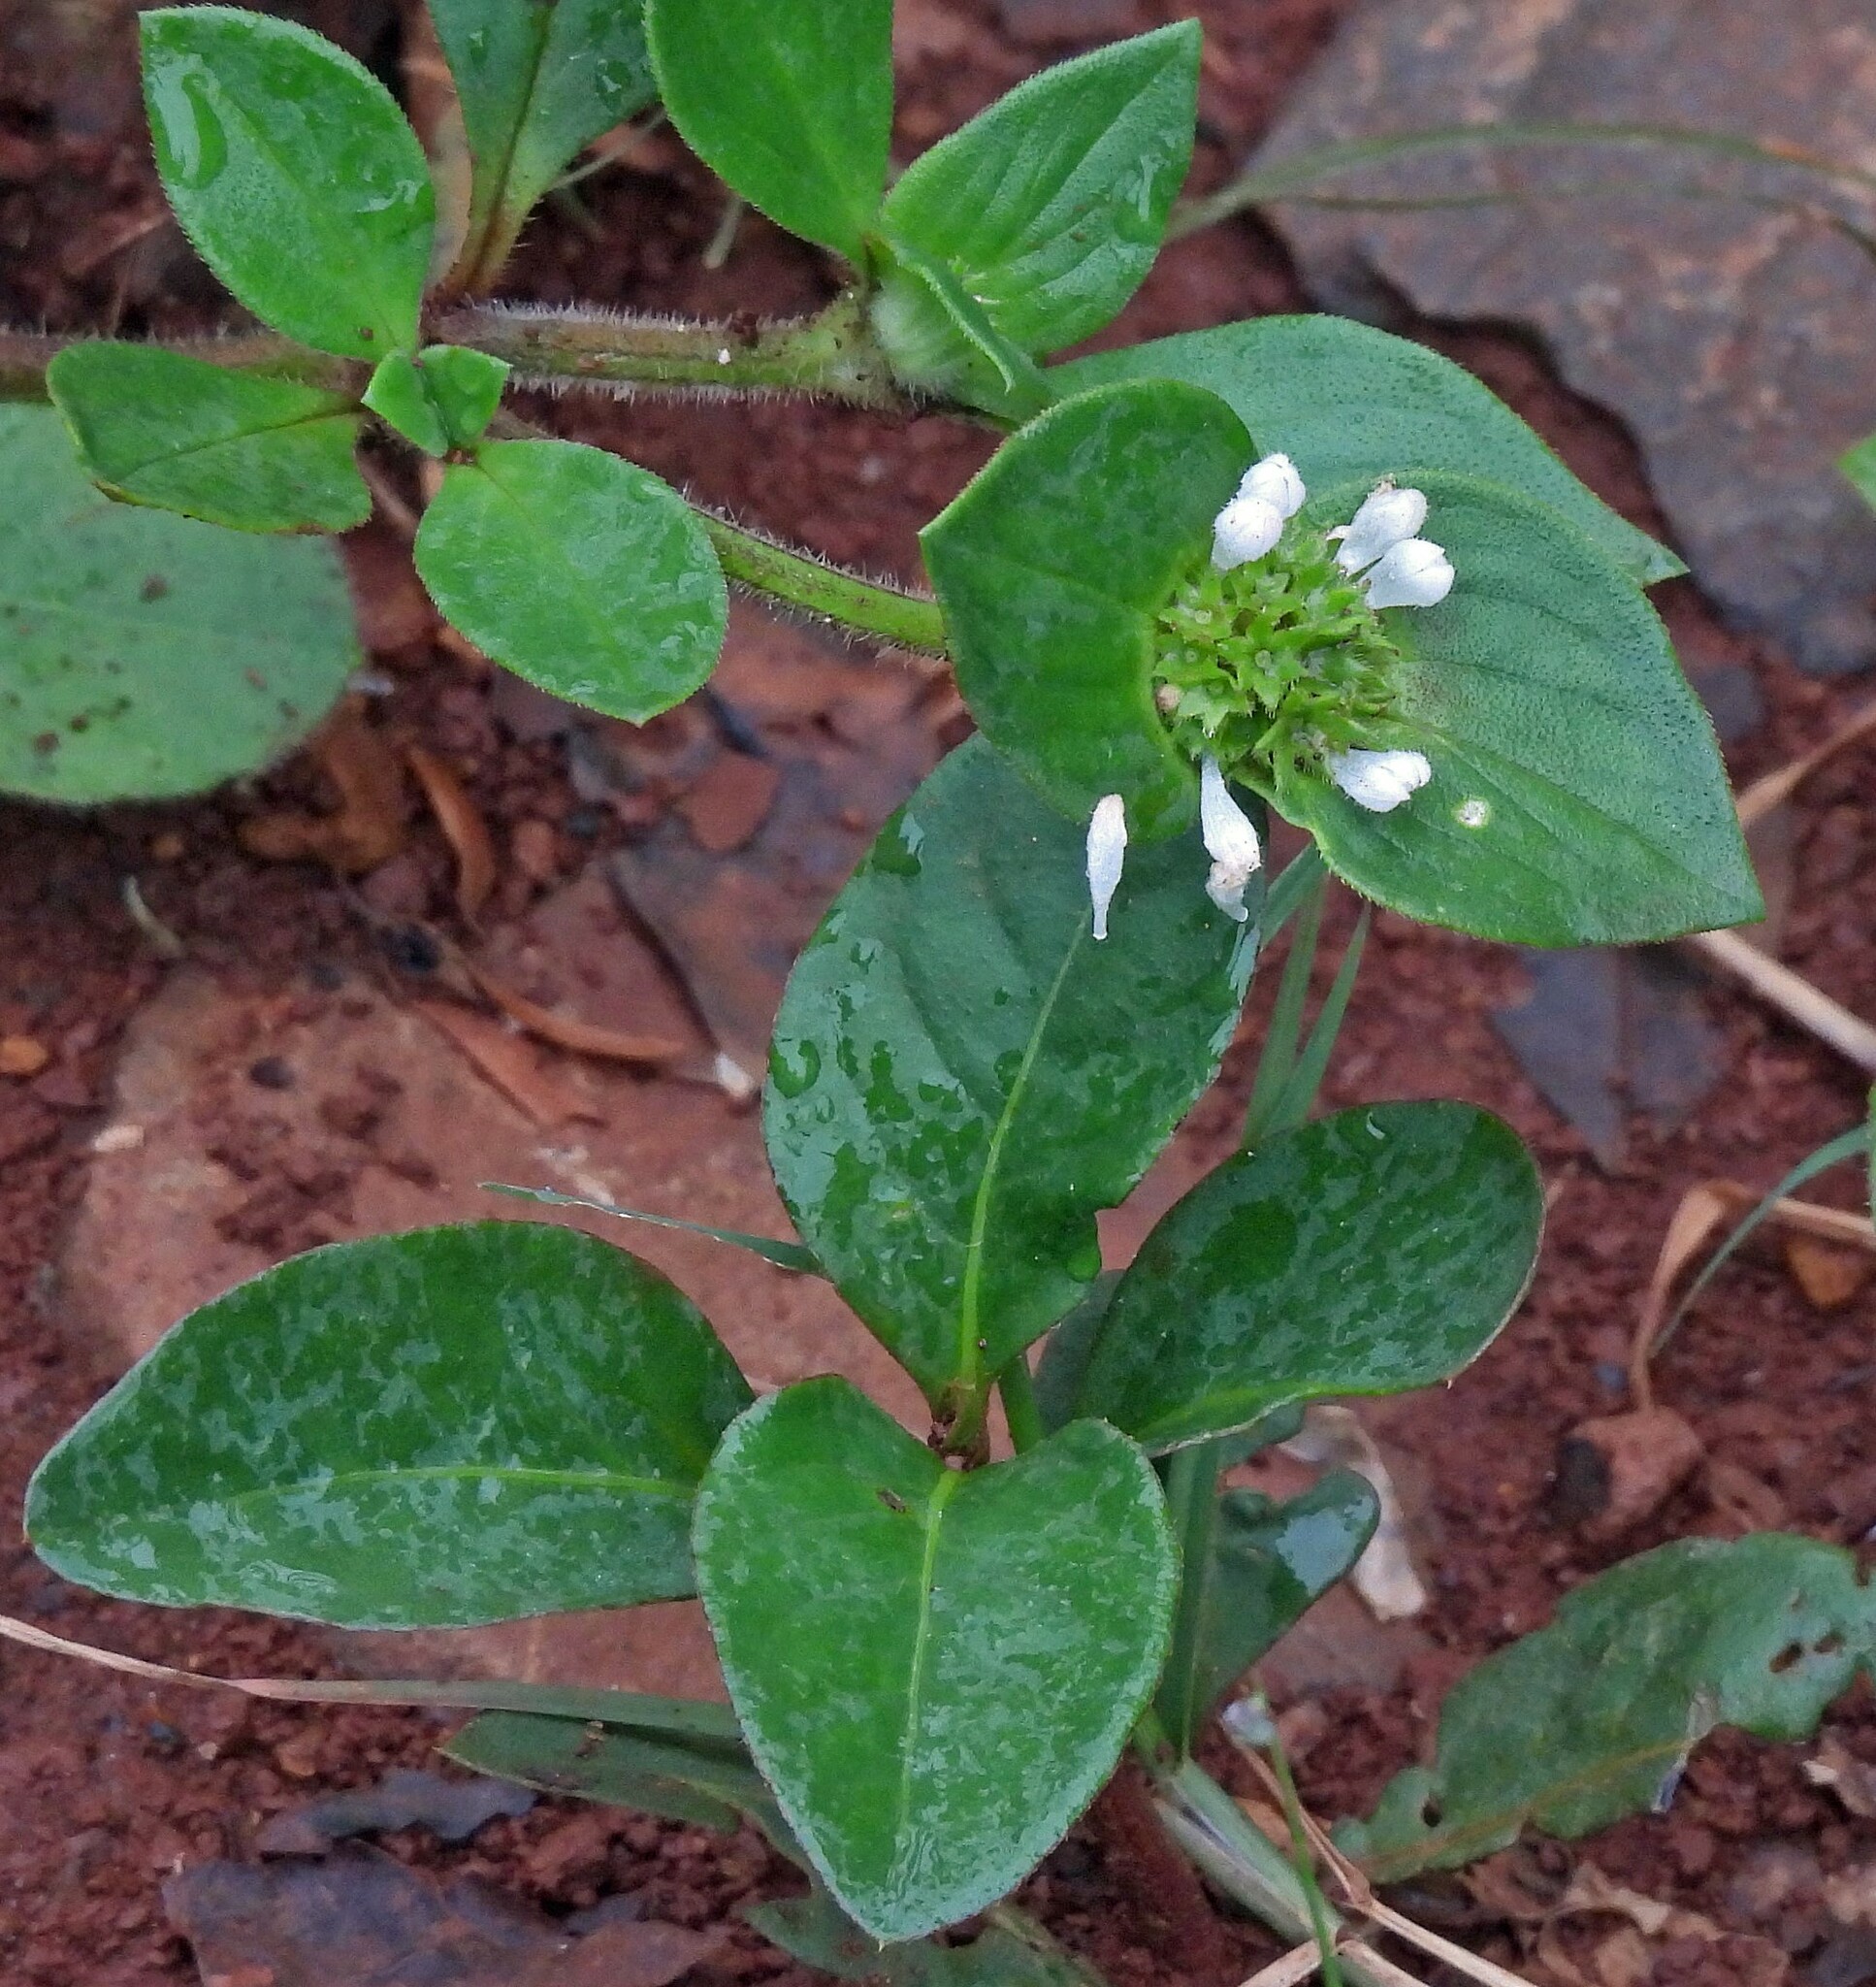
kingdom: Plantae
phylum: Tracheophyta
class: Magnoliopsida
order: Gentianales
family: Rubiaceae
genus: Richardia
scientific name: Richardia brasiliensis
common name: Tropical mexican clover
